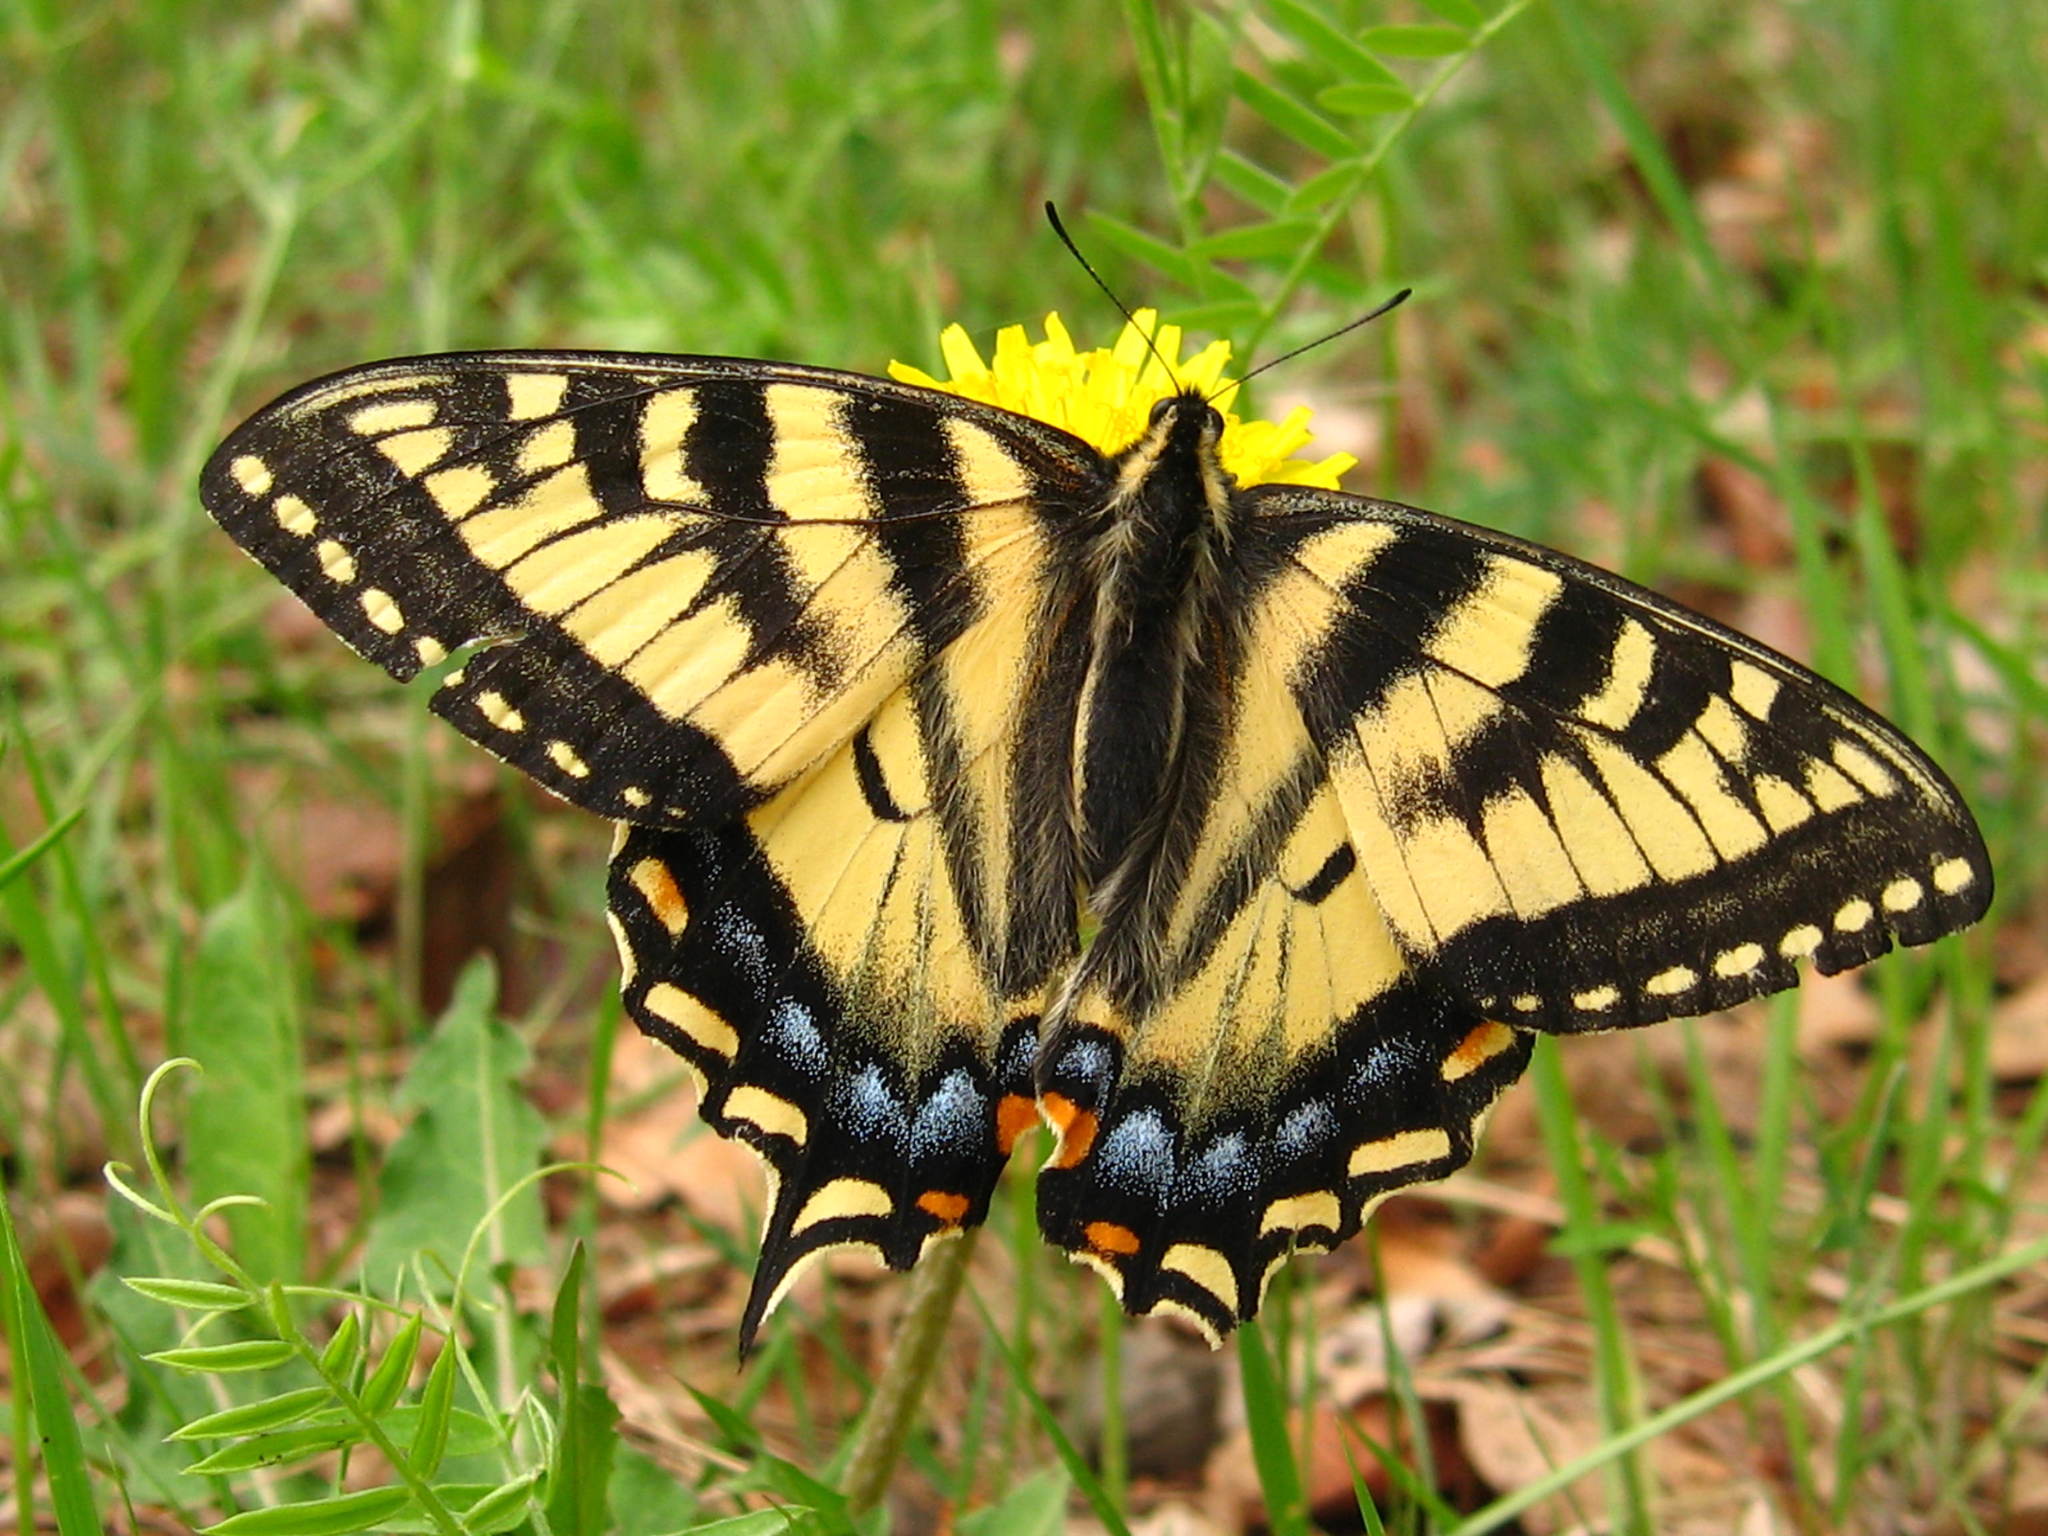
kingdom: Animalia
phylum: Arthropoda
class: Insecta
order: Lepidoptera
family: Papilionidae
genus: Papilio
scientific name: Papilio canadensis
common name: Canadian tiger swallowtail
